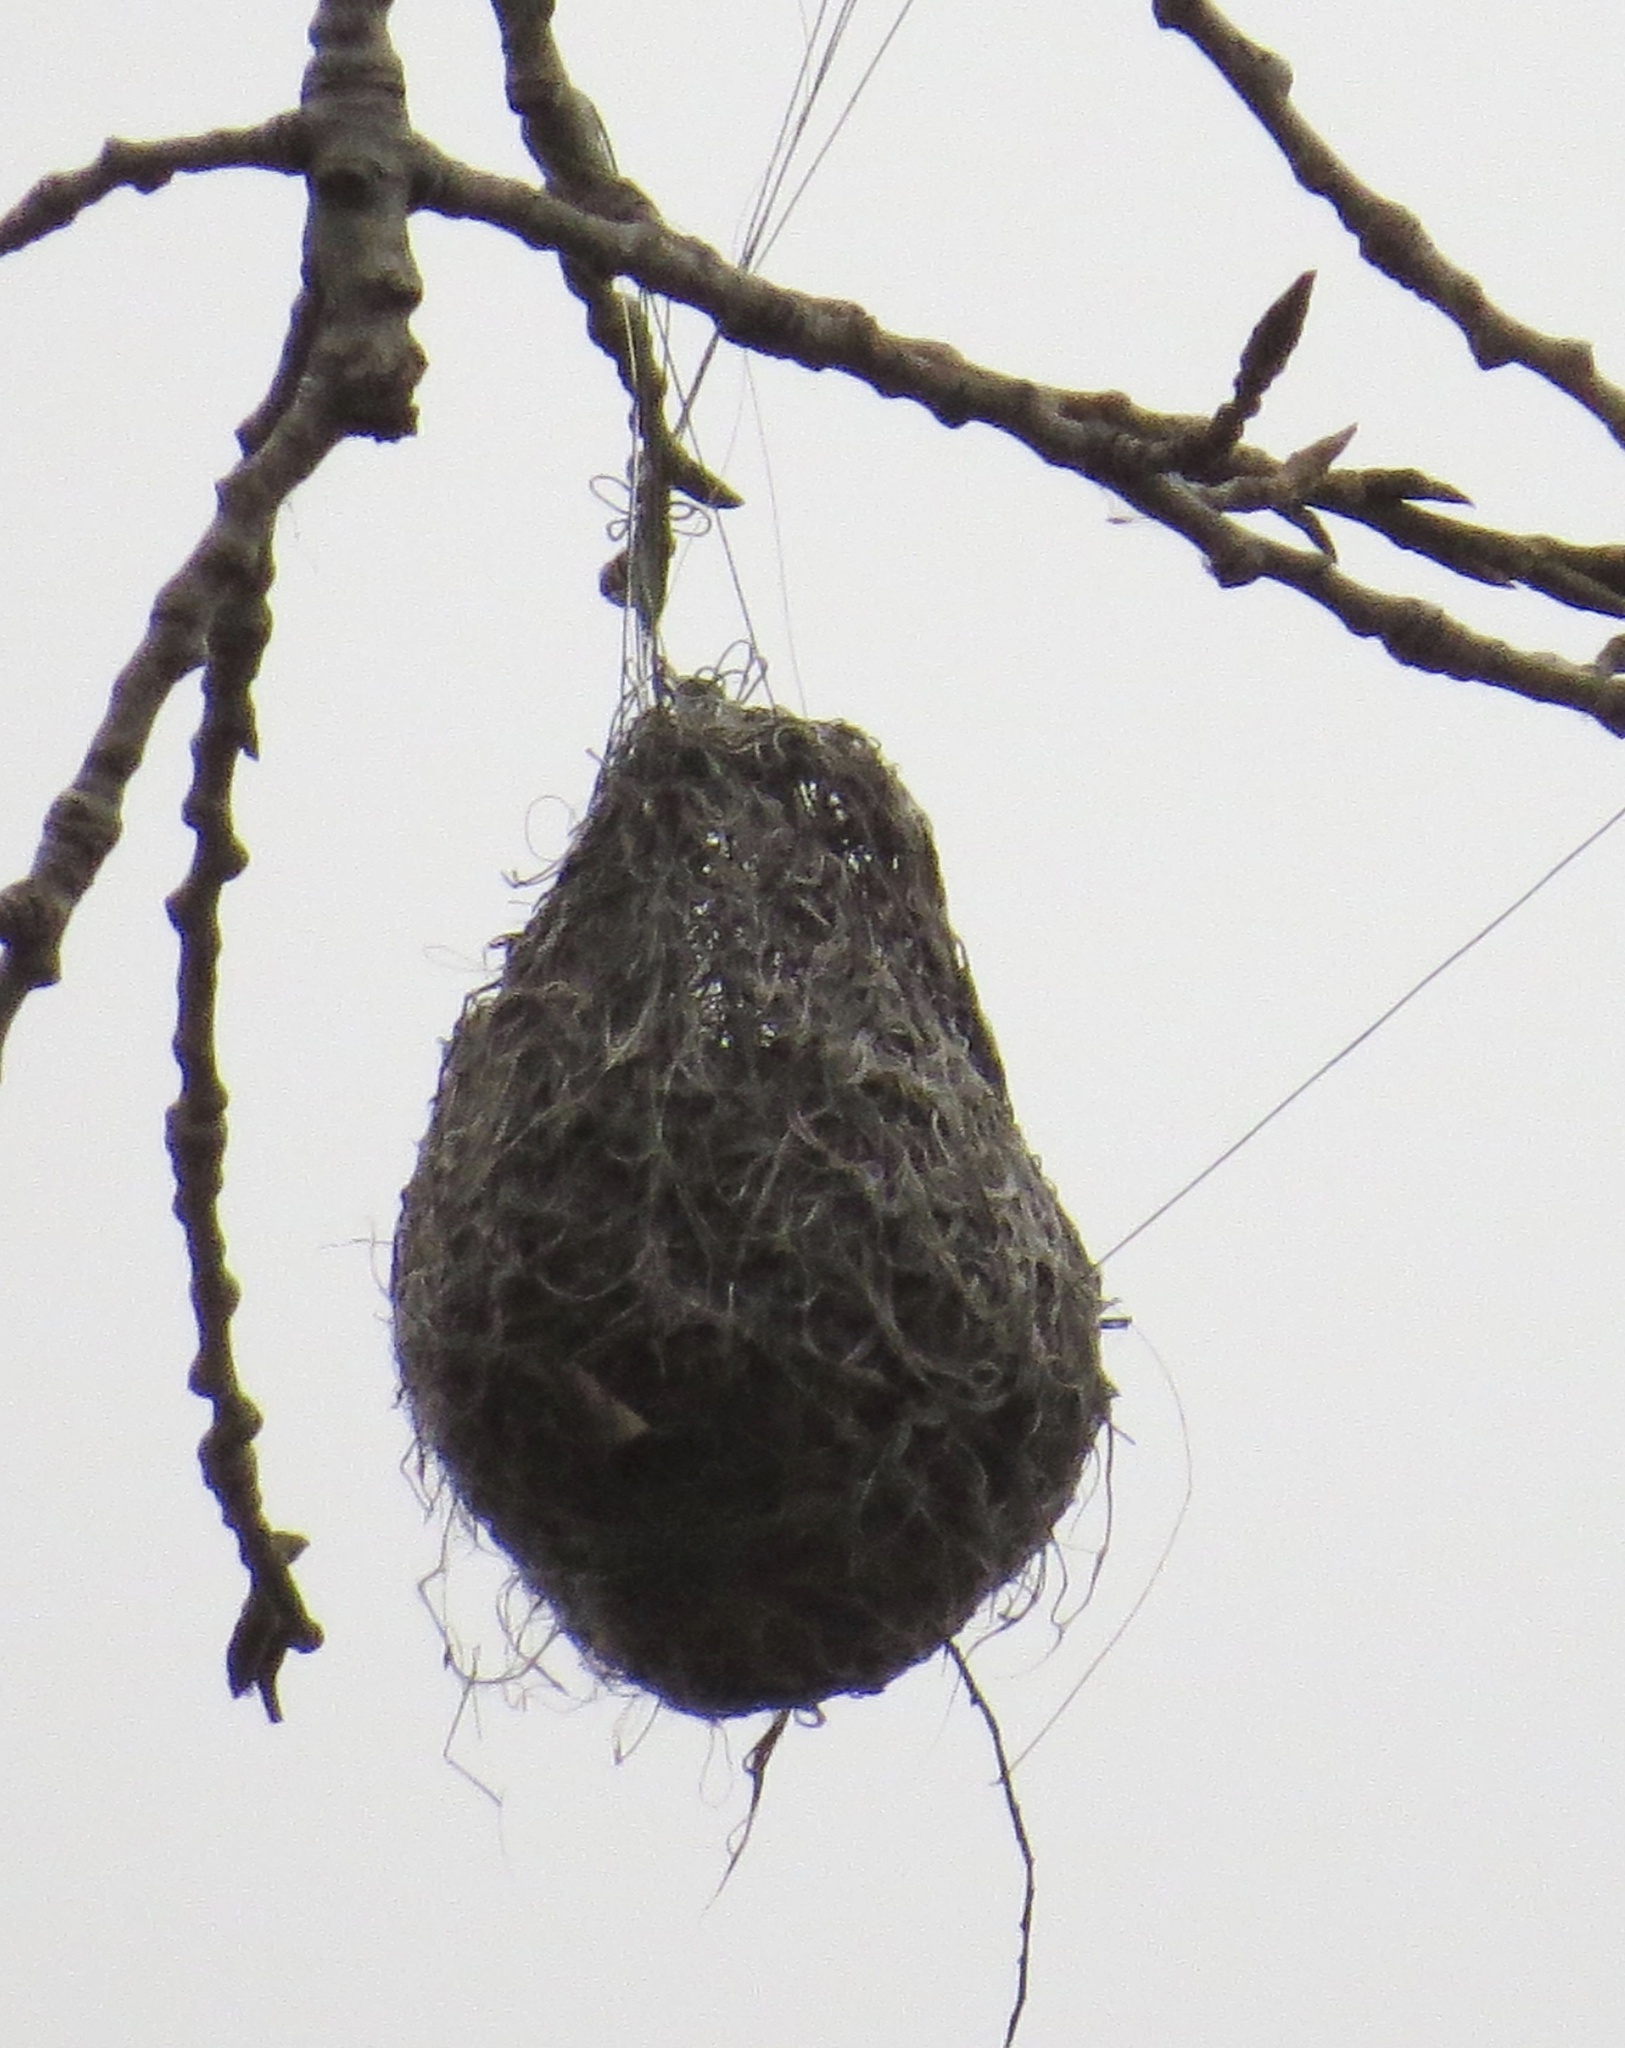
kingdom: Animalia
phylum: Chordata
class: Aves
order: Passeriformes
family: Icteridae
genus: Icterus
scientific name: Icterus galbula
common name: Baltimore oriole
